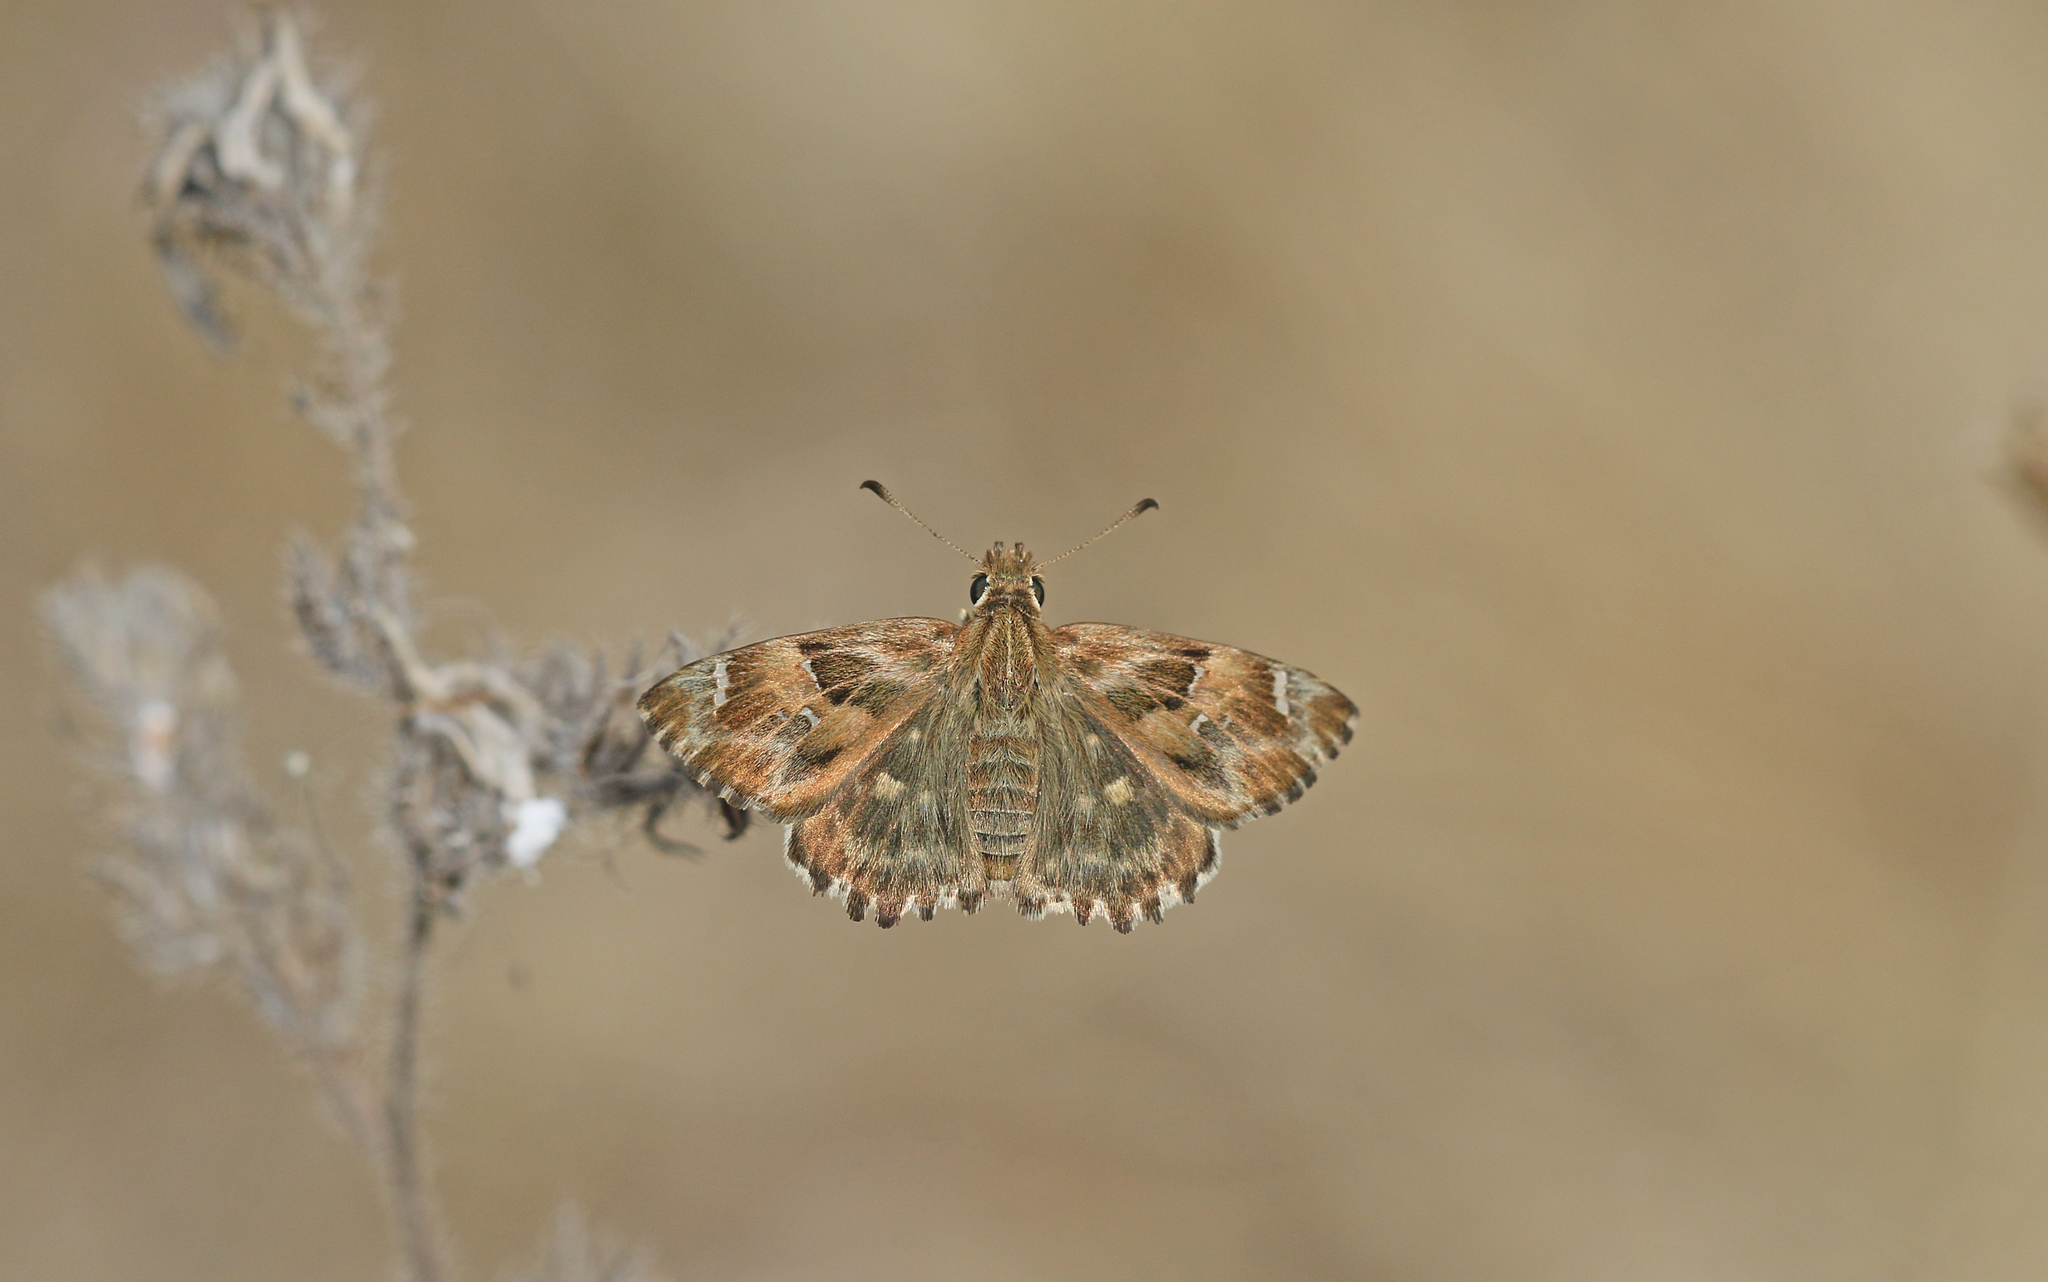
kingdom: Animalia
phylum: Arthropoda
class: Insecta
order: Lepidoptera
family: Hesperiidae
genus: Carcharodus
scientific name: Carcharodus alceae
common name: Mallow skipper
